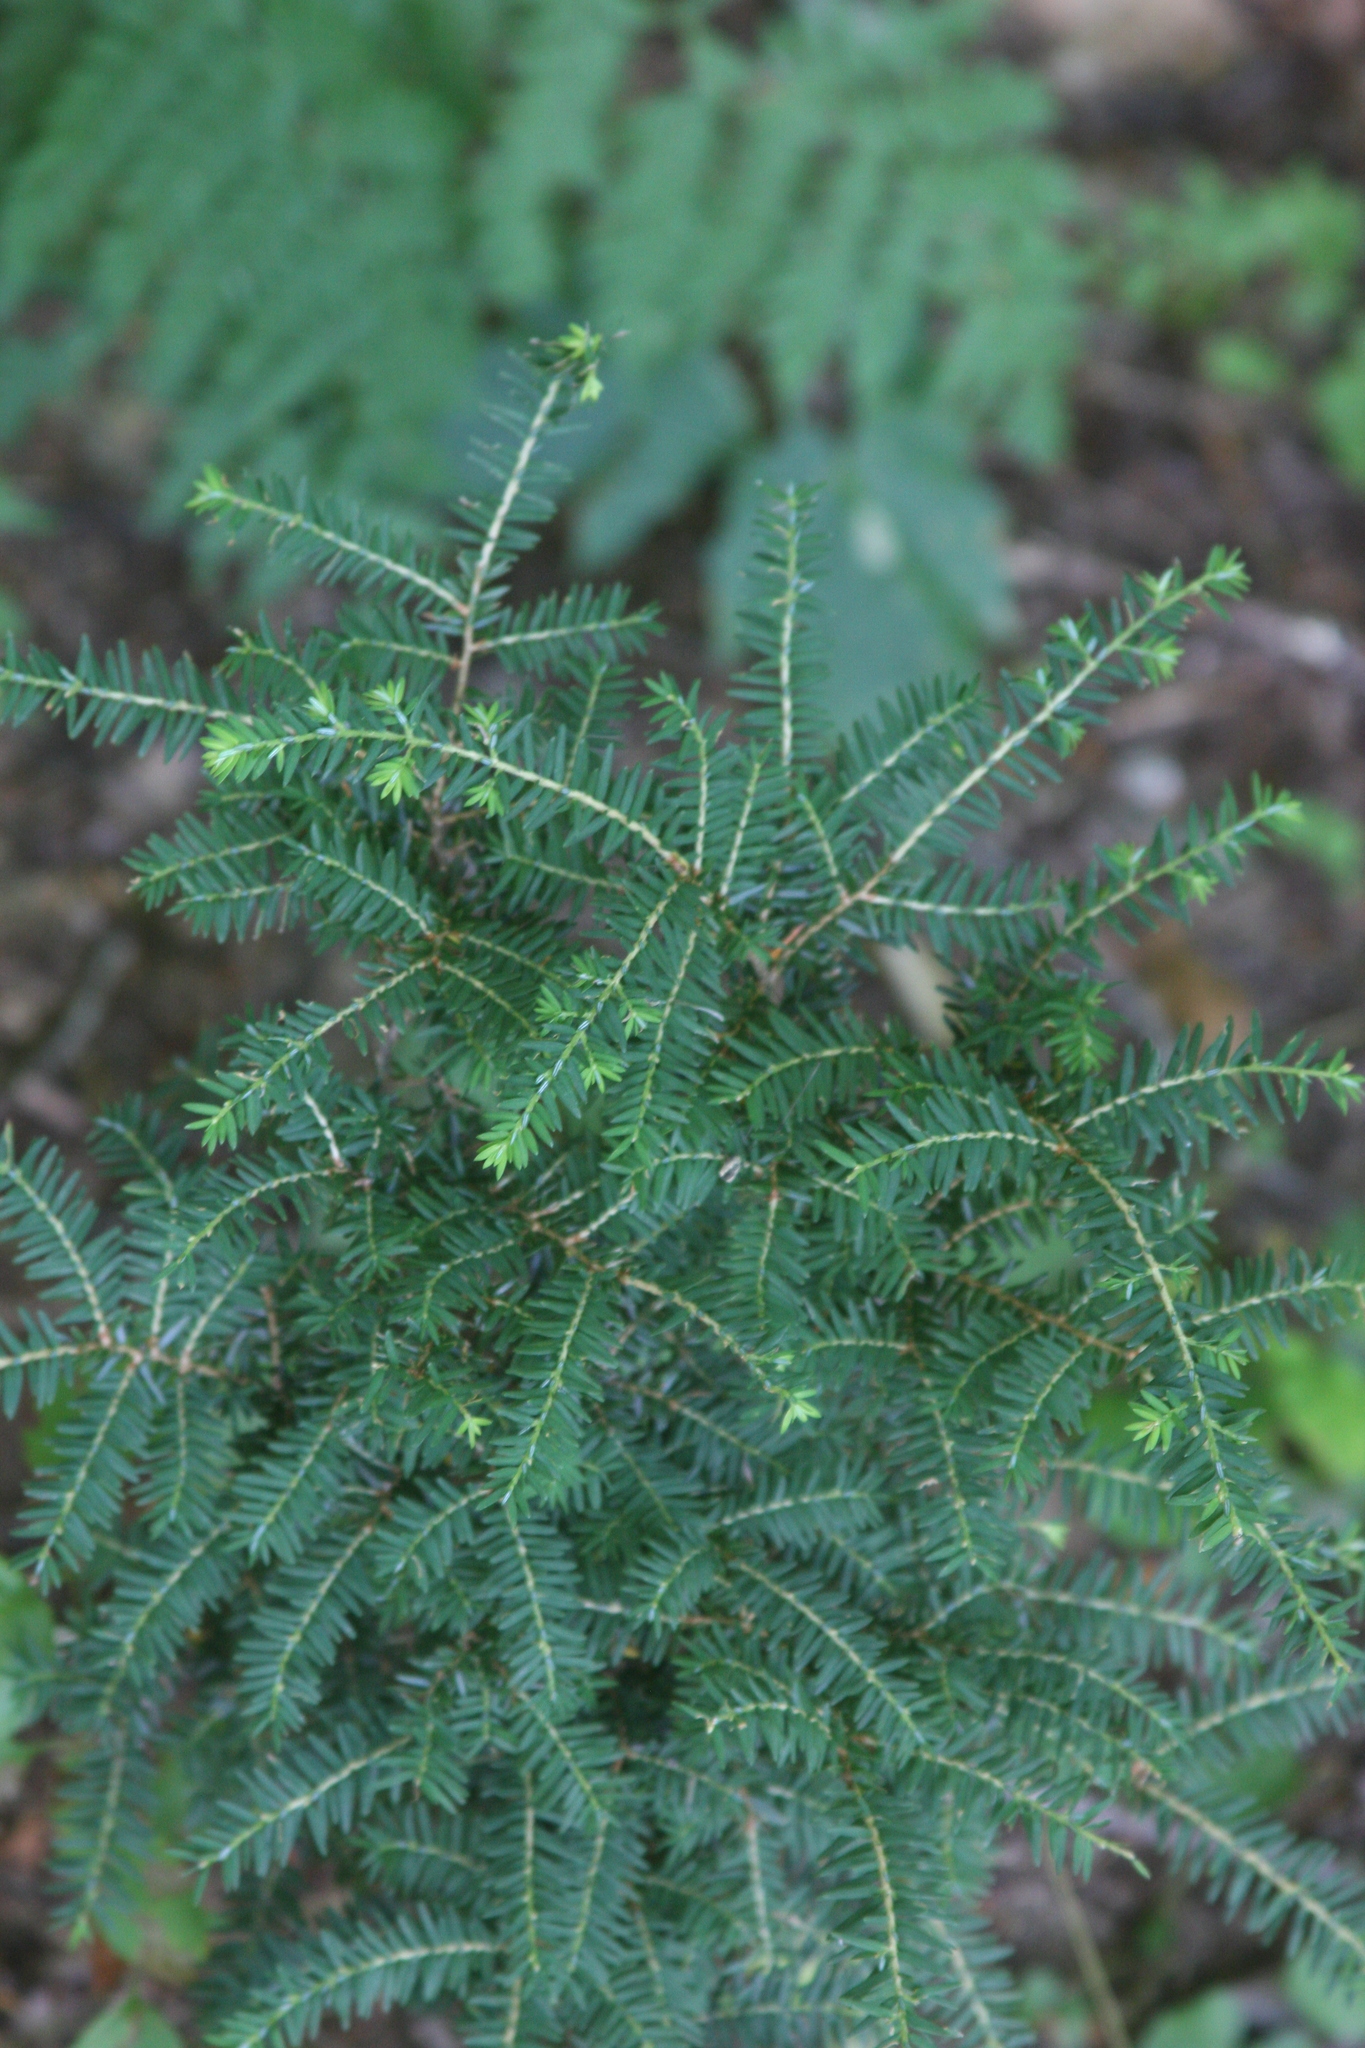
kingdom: Plantae
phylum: Tracheophyta
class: Pinopsida
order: Pinales
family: Pinaceae
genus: Tsuga
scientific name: Tsuga canadensis
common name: Eastern hemlock
